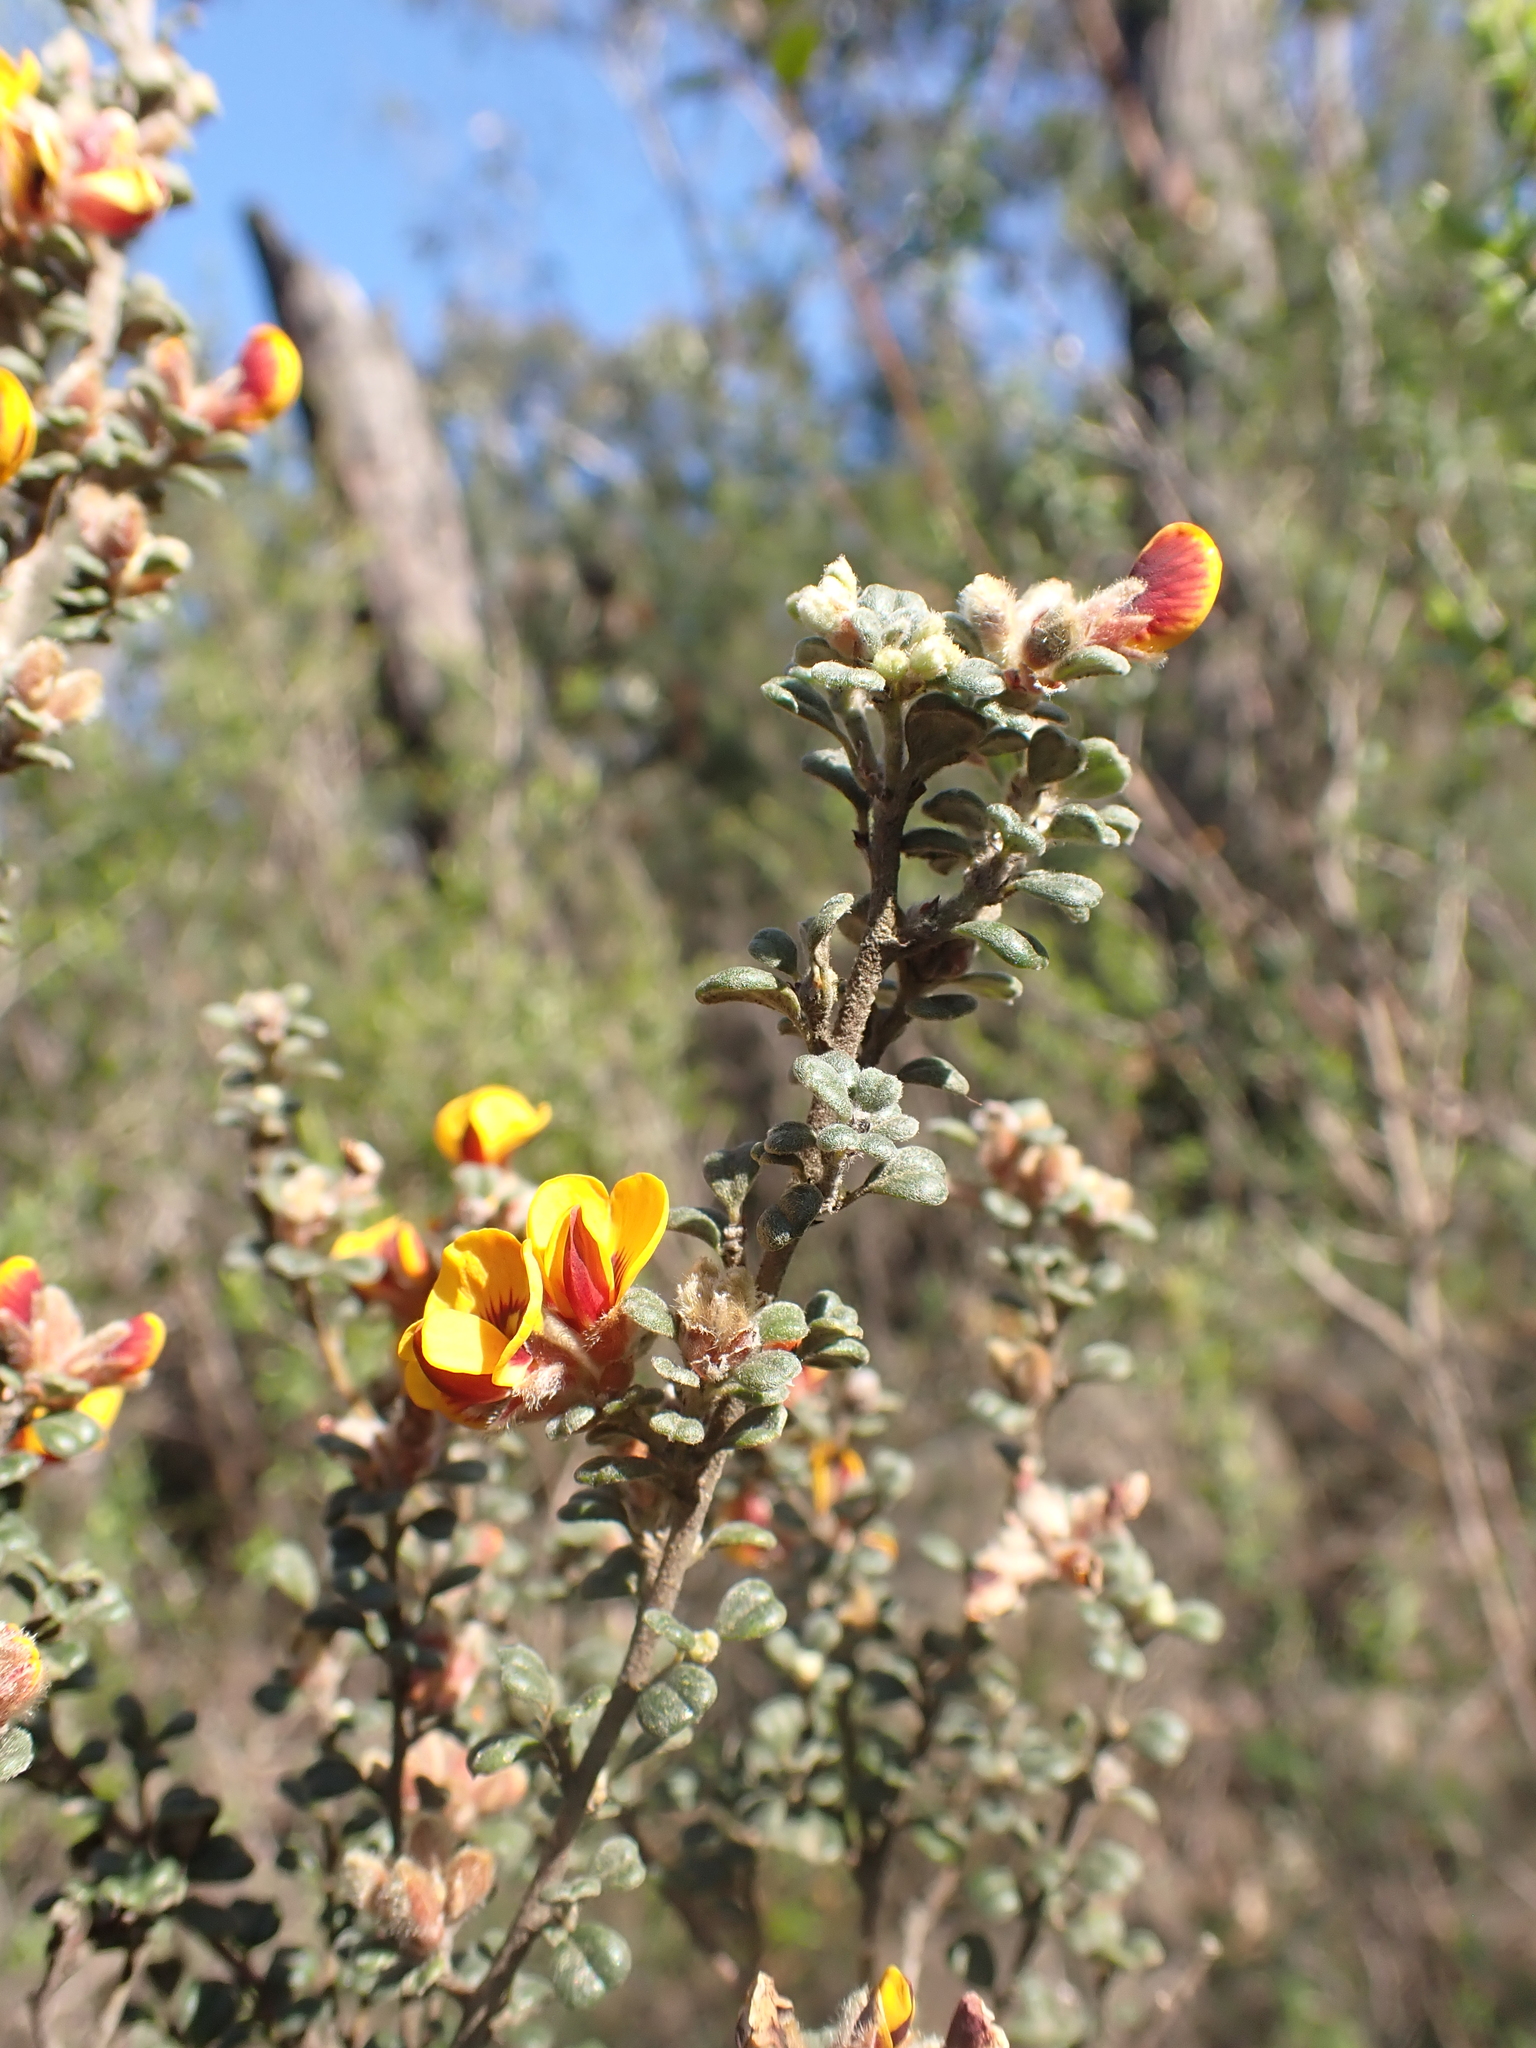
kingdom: Plantae
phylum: Tracheophyta
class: Magnoliopsida
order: Fabales
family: Fabaceae
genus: Pultenaea
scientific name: Pultenaea scabra
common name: Rough bush-pea
